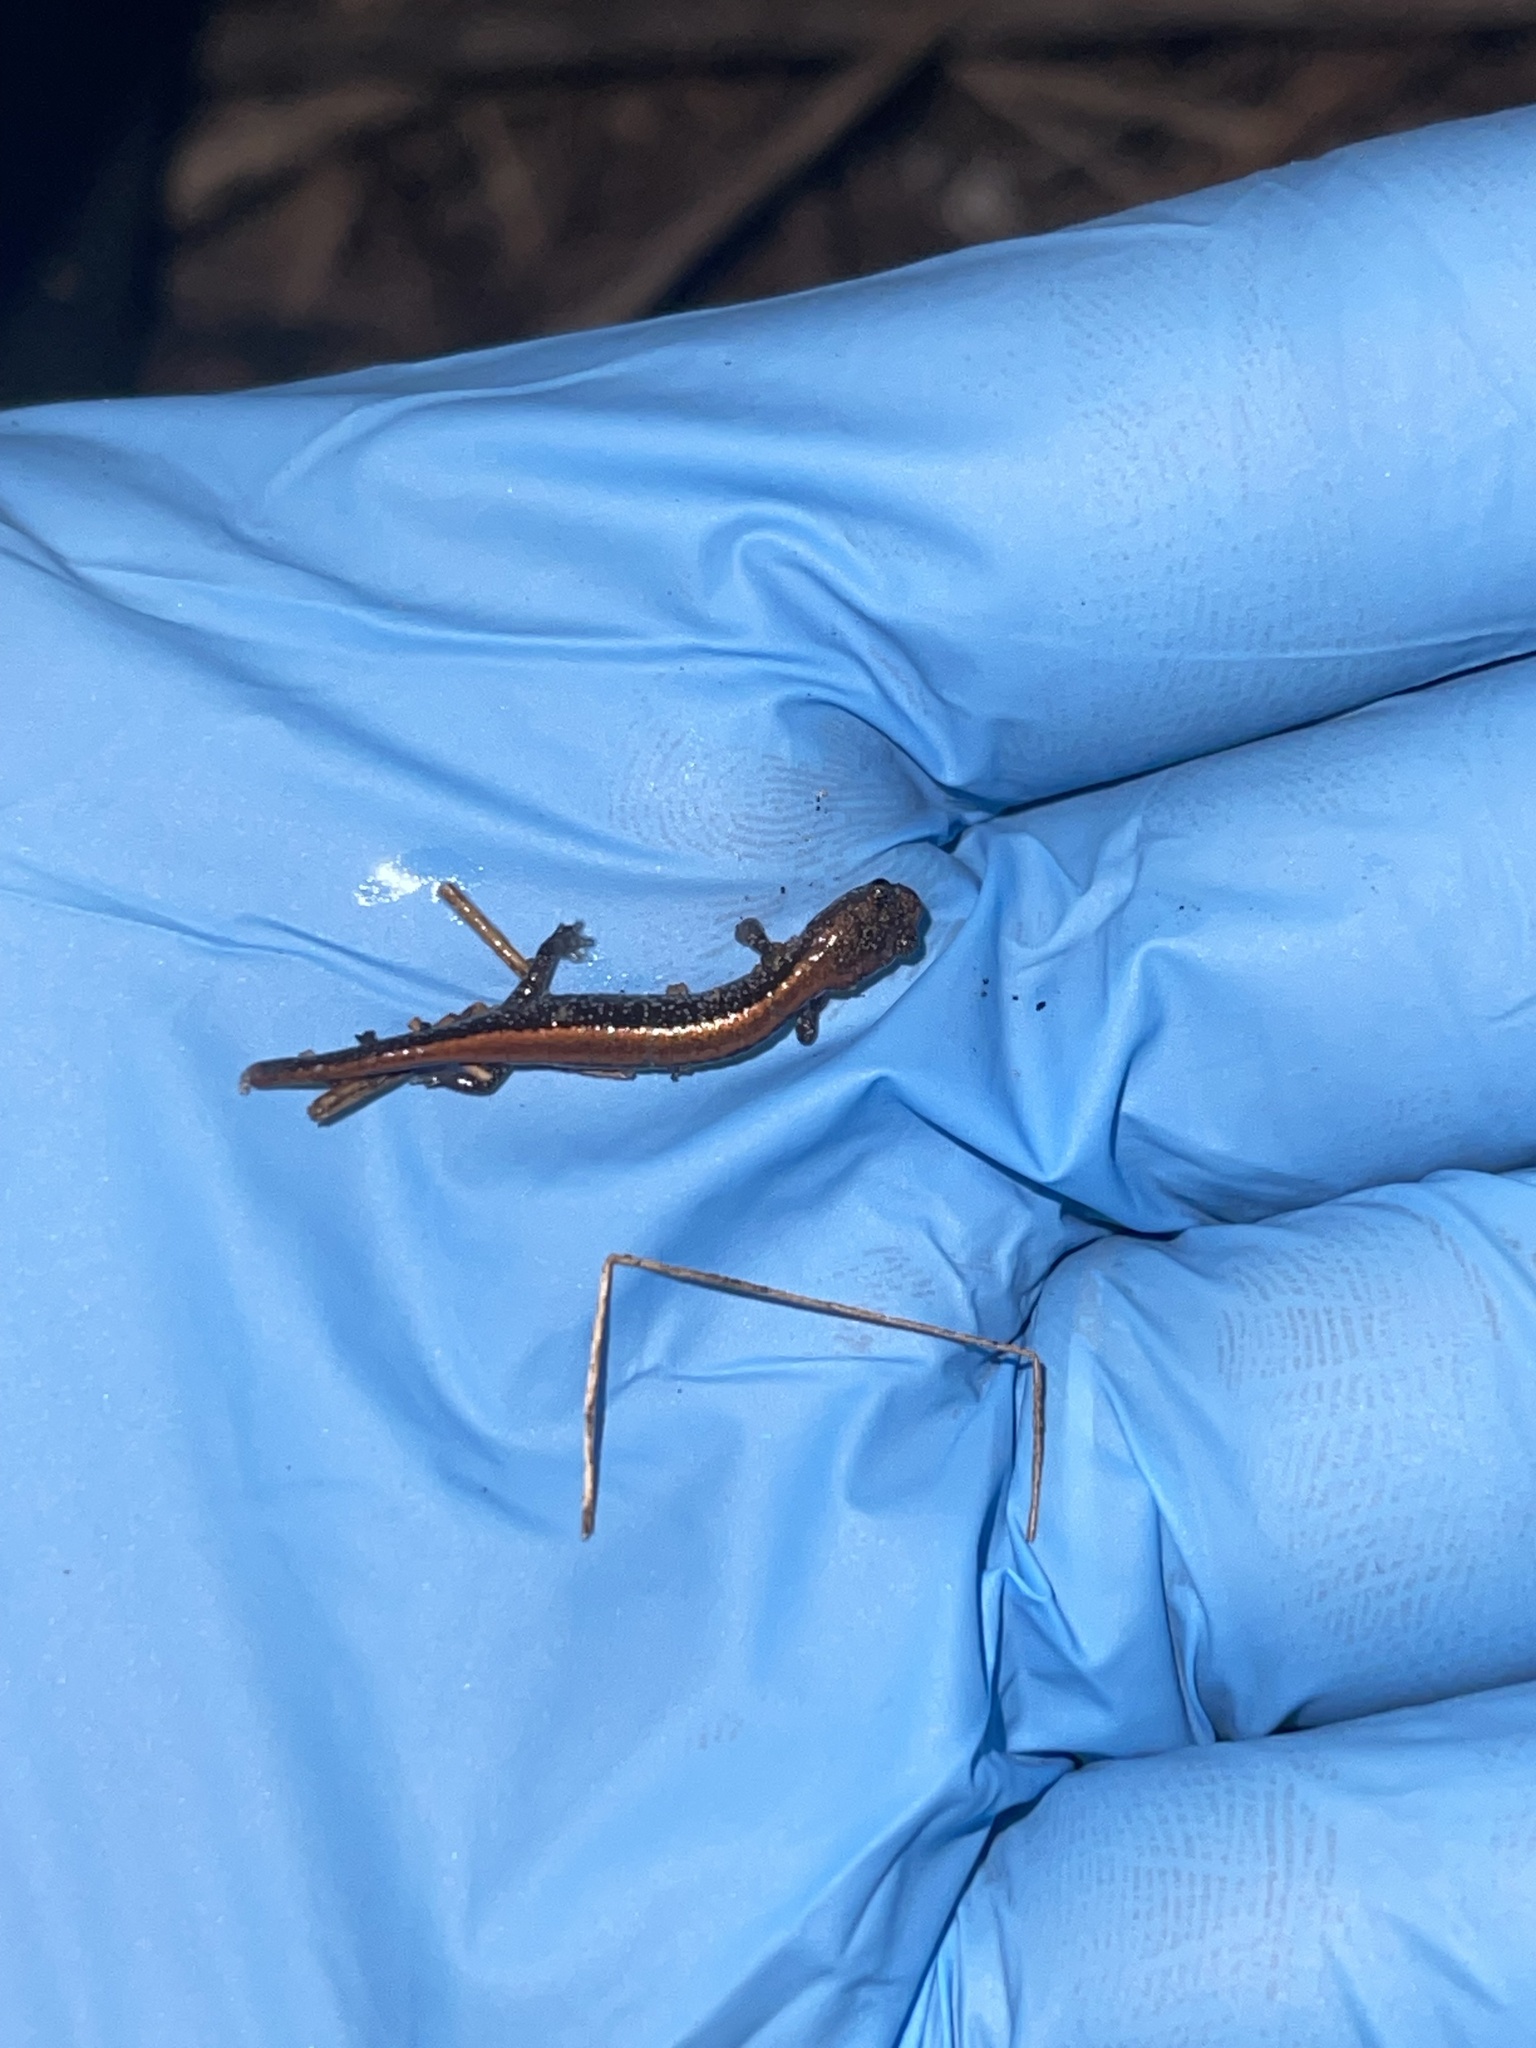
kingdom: Animalia
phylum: Chordata
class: Amphibia
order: Caudata
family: Plethodontidae
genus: Plethodon
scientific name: Plethodon cinereus
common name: Redback salamander
